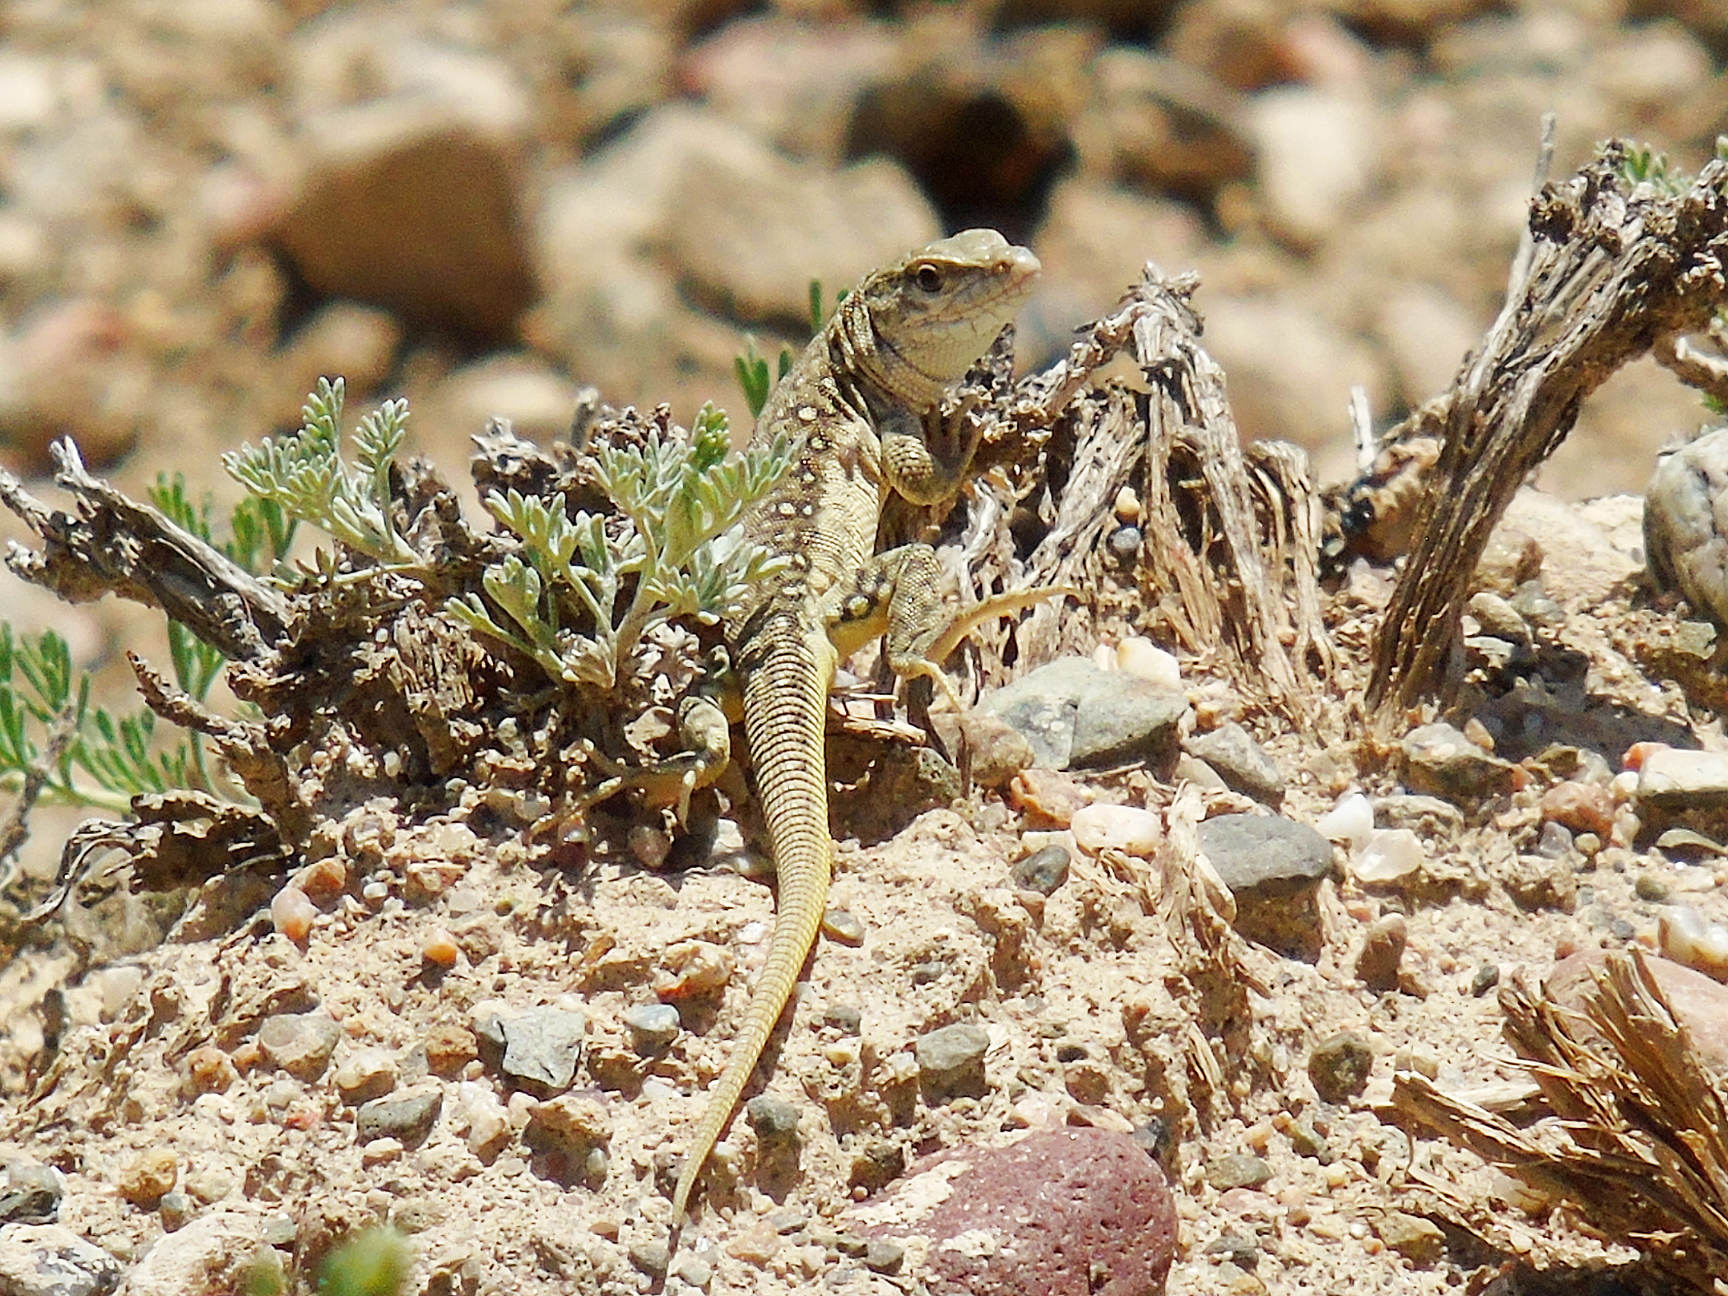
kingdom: Animalia
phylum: Chordata
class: Squamata
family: Lacertidae
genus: Eremias
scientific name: Eremias szczerbaki
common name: Szczerbak’s racerunner
